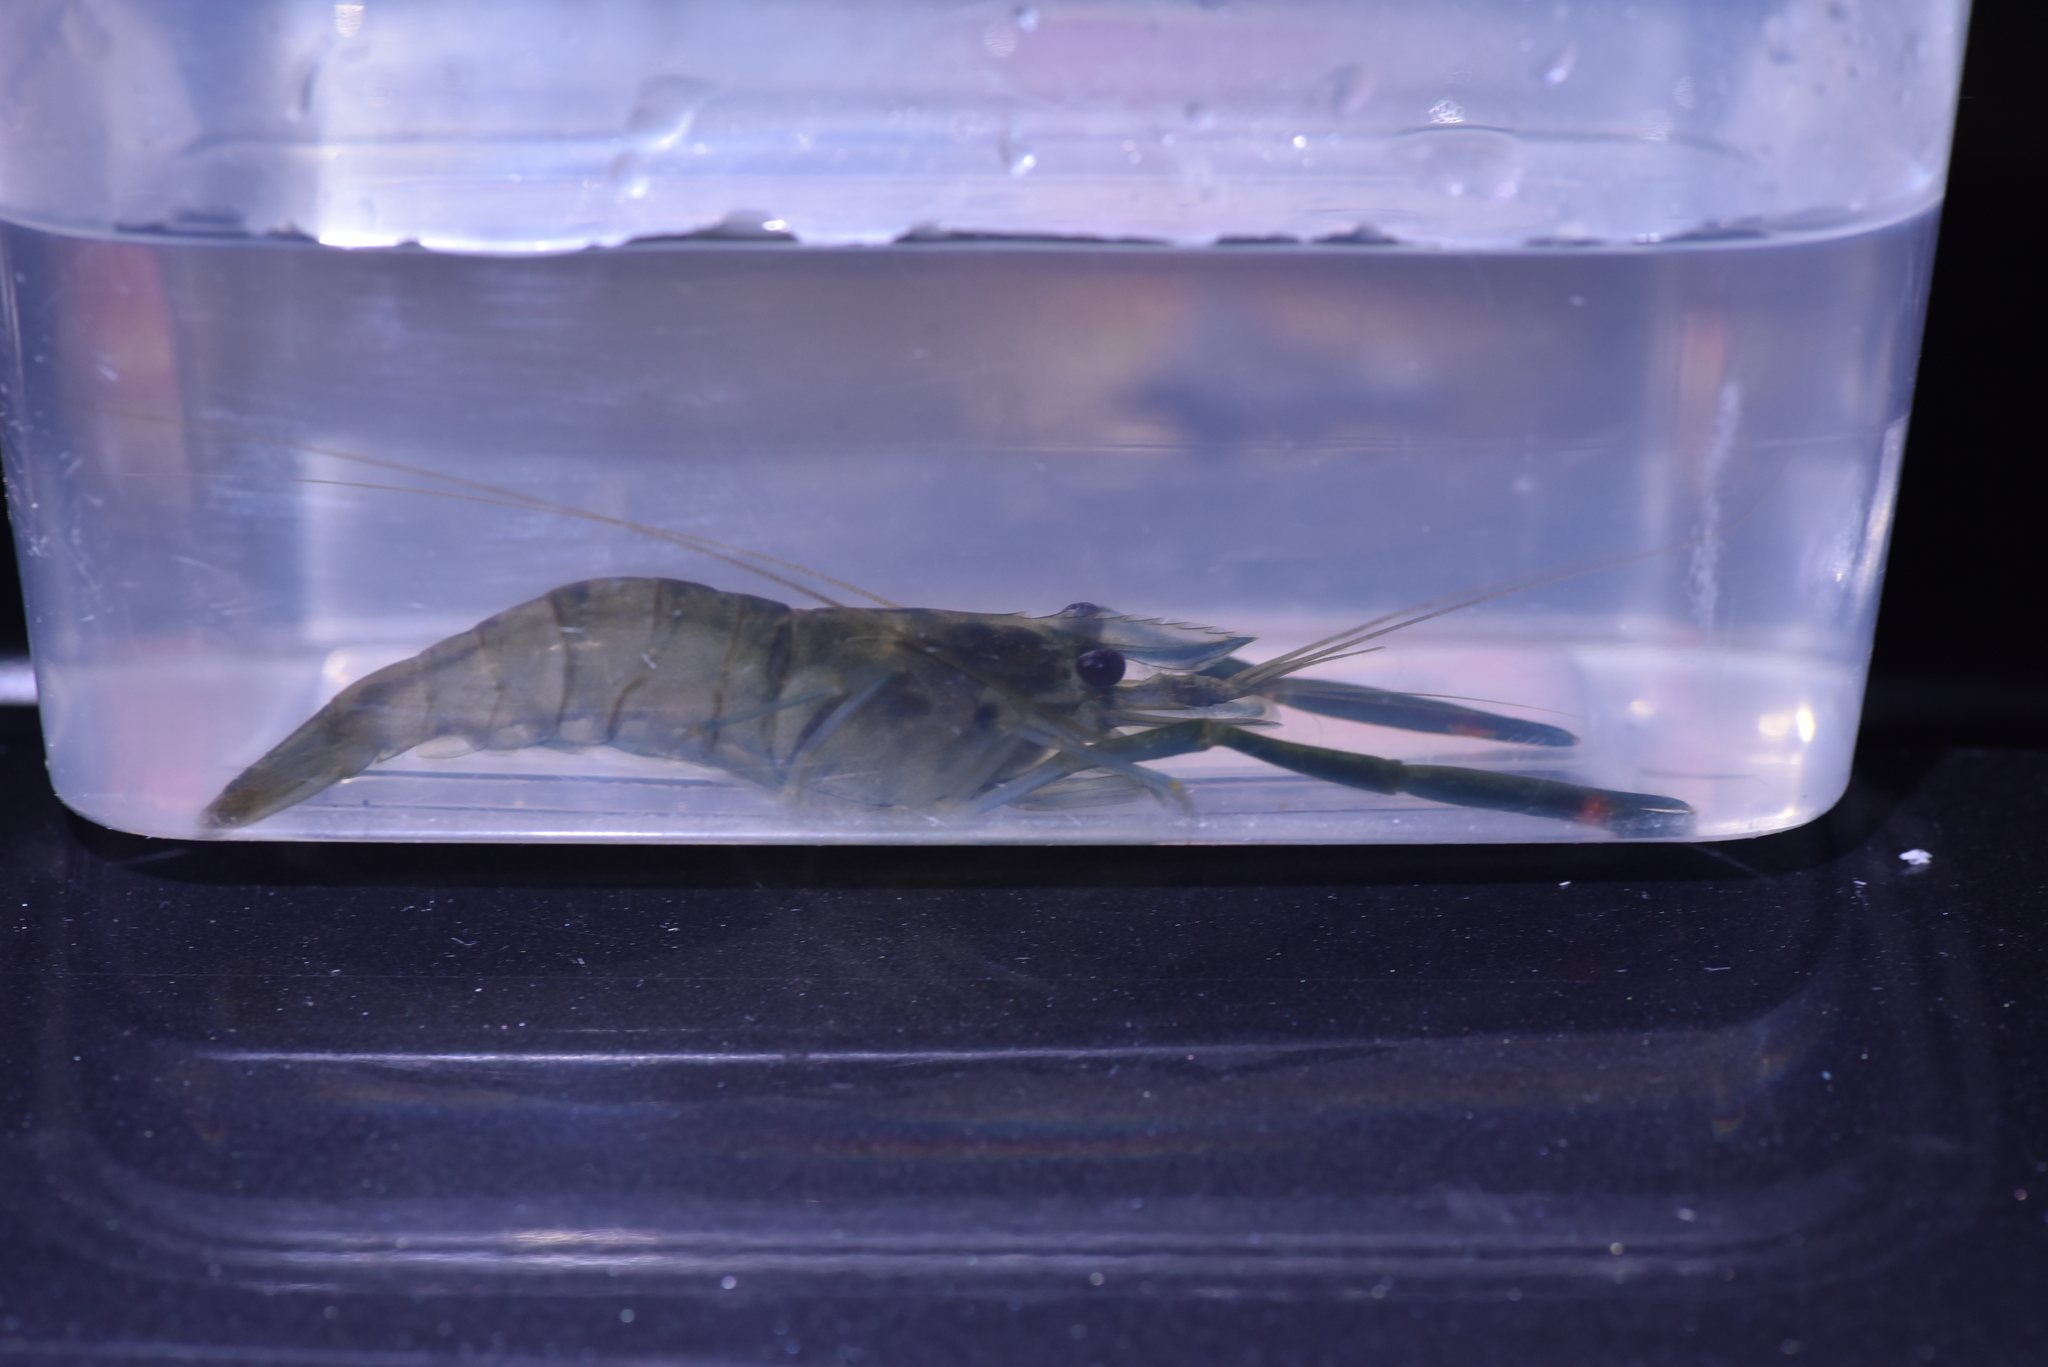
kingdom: Animalia
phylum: Arthropoda
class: Malacostraca
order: Decapoda
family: Palaemonidae
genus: Macrobrachium
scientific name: Macrobrachium asperulum
